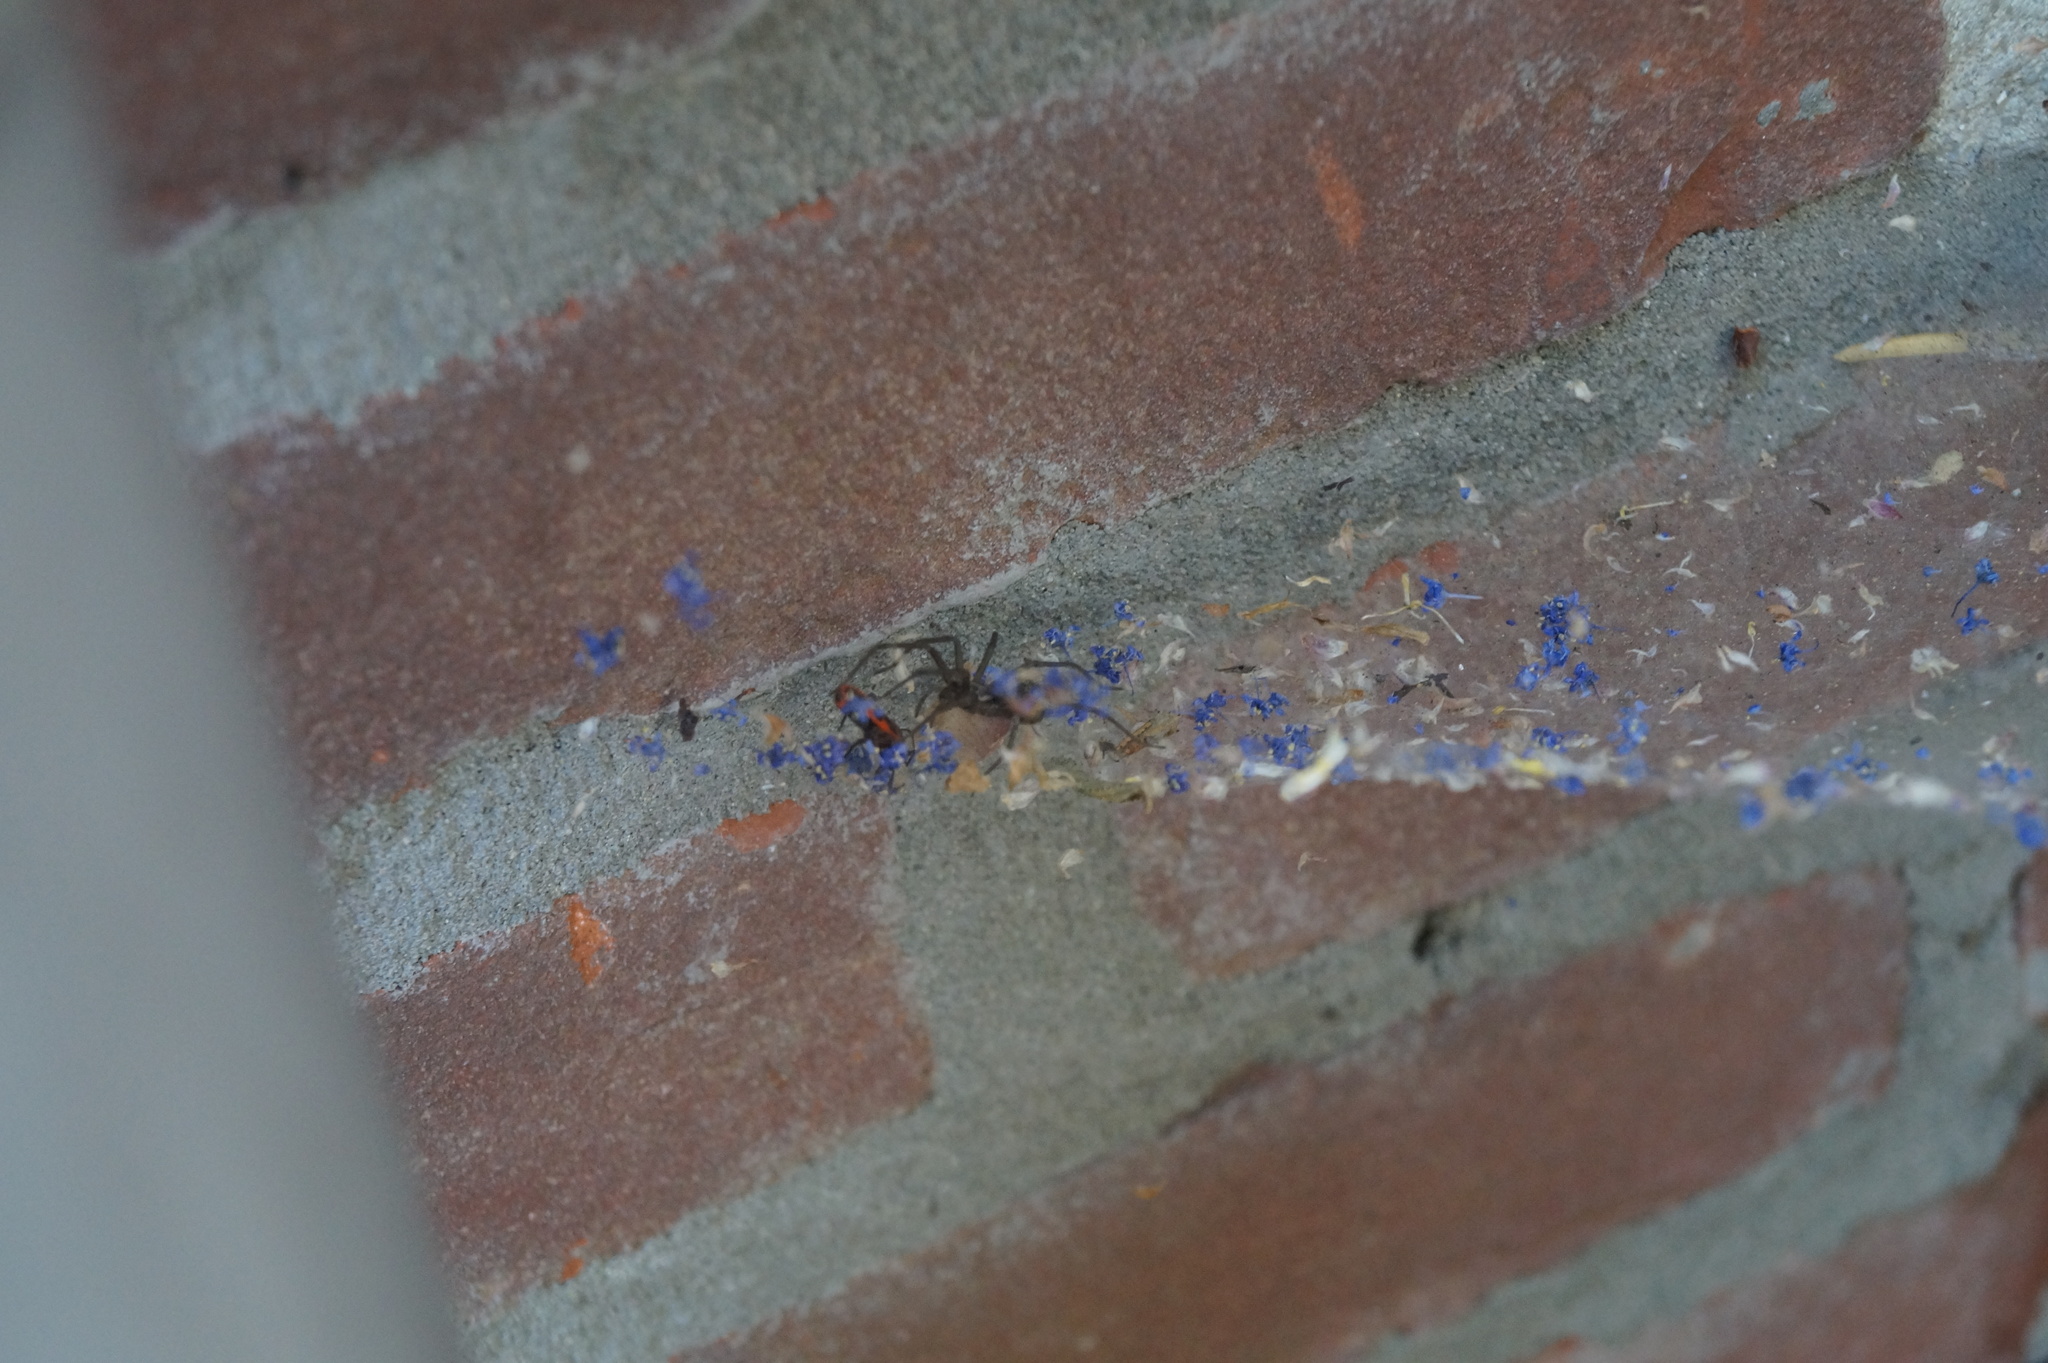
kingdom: Animalia
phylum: Arthropoda
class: Insecta
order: Hemiptera
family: Pyrrhocoridae
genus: Pyrrhocoris
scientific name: Pyrrhocoris apterus
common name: Firebug
